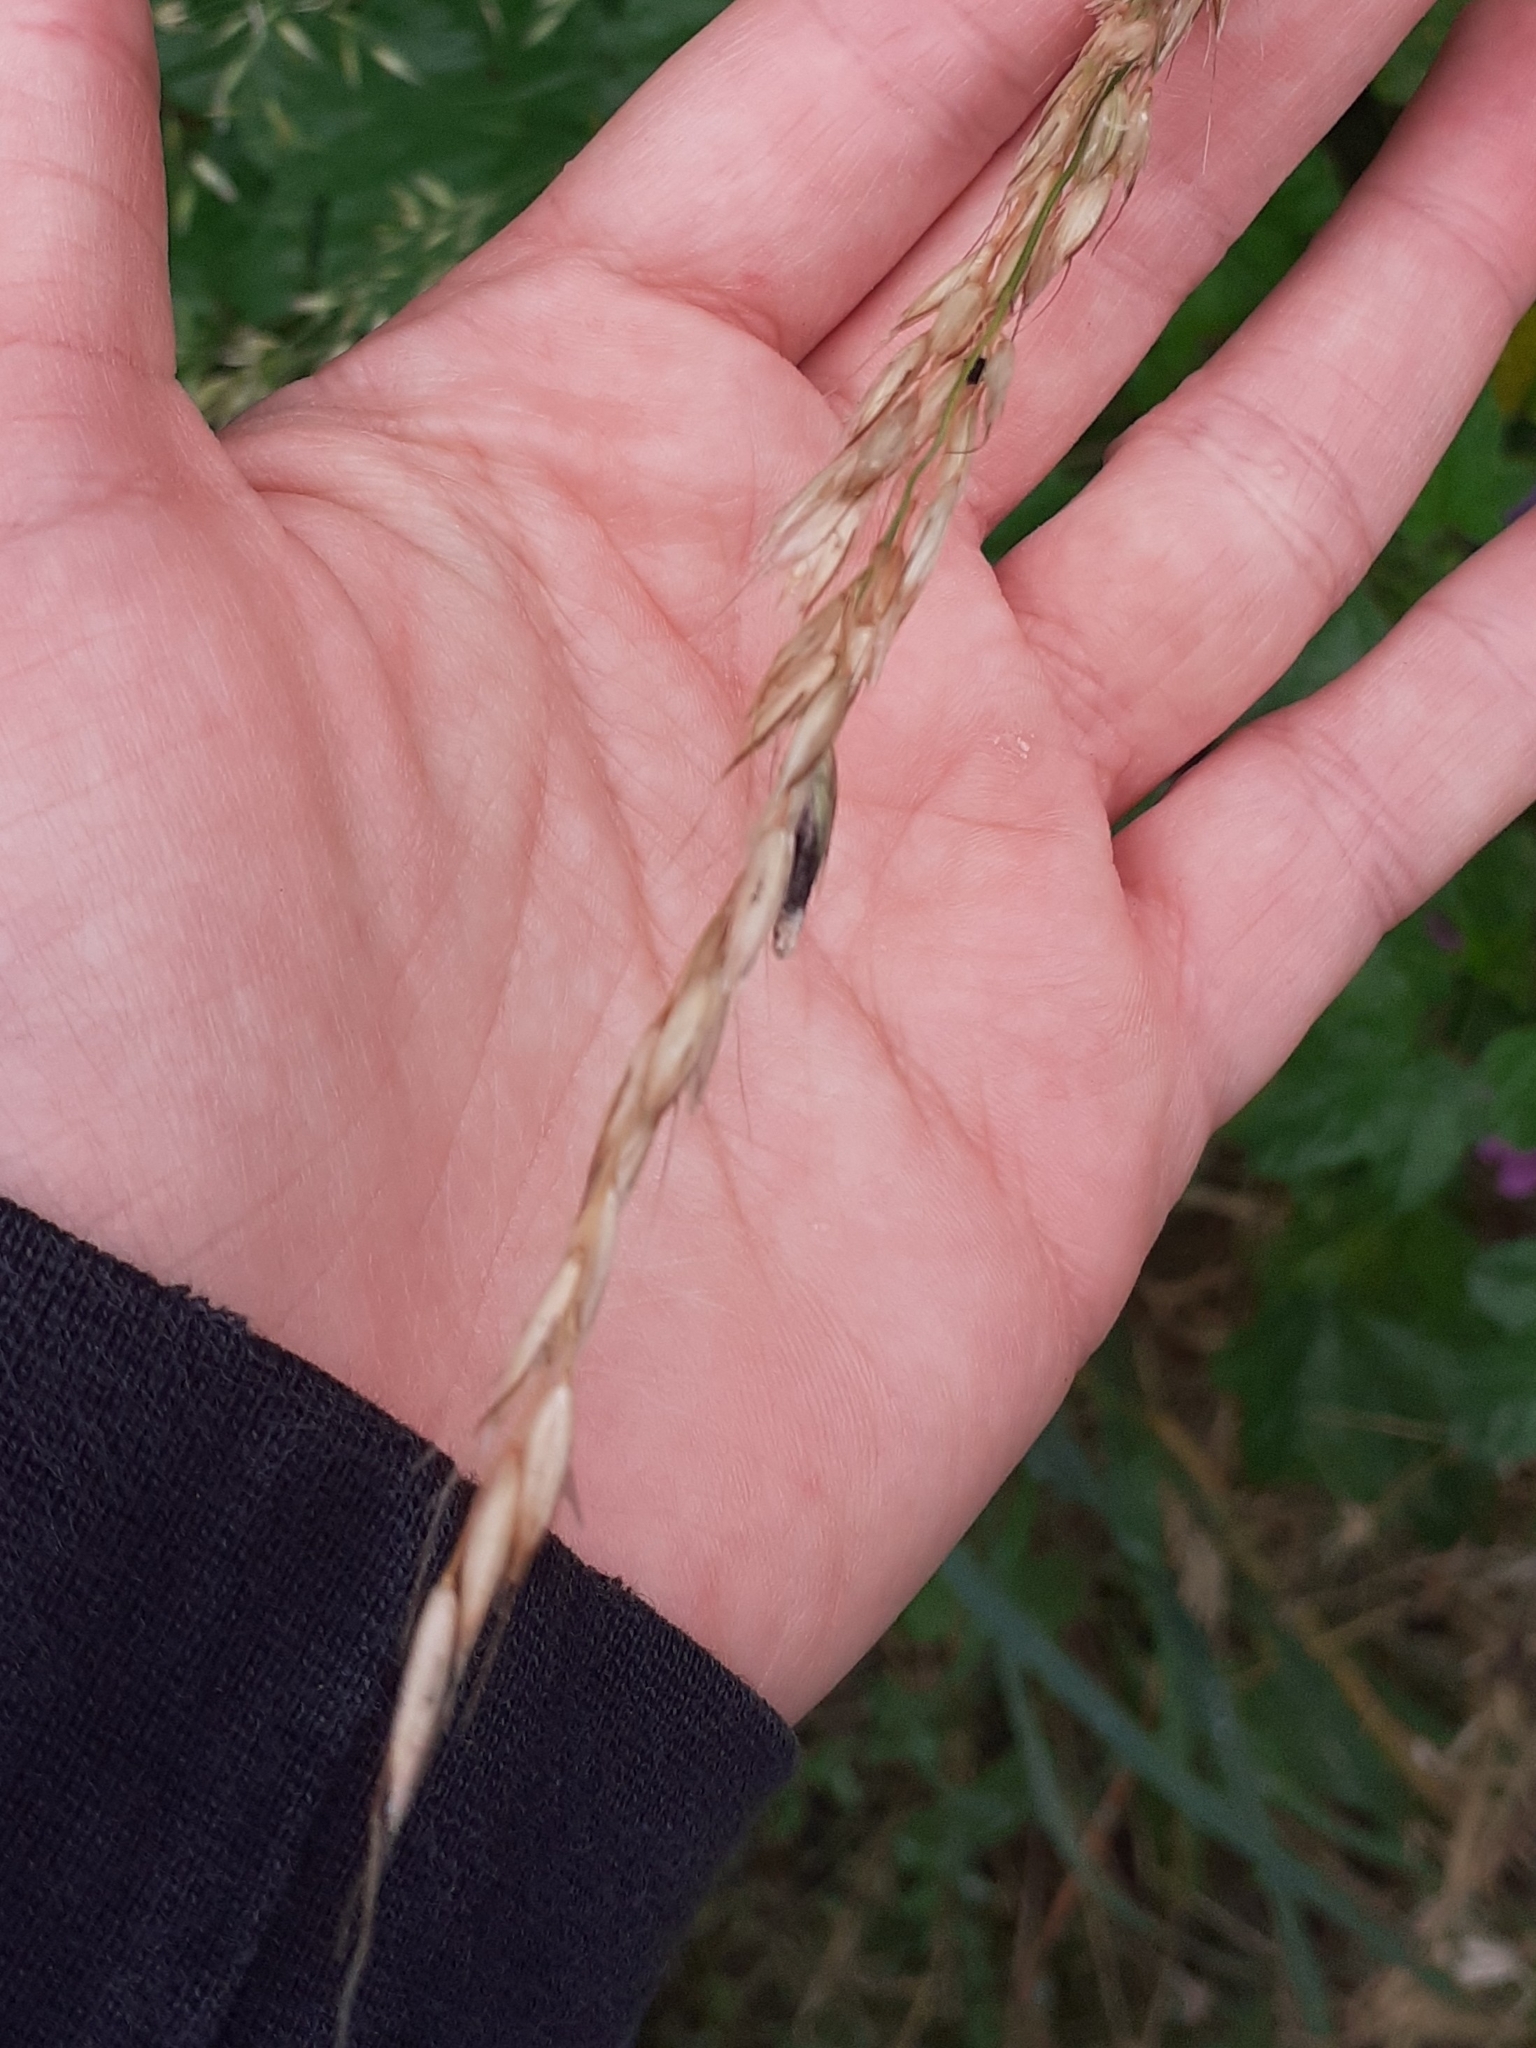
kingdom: Plantae
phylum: Tracheophyta
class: Liliopsida
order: Poales
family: Poaceae
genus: Arrhenatherum
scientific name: Arrhenatherum elatius
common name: Tall oatgrass
